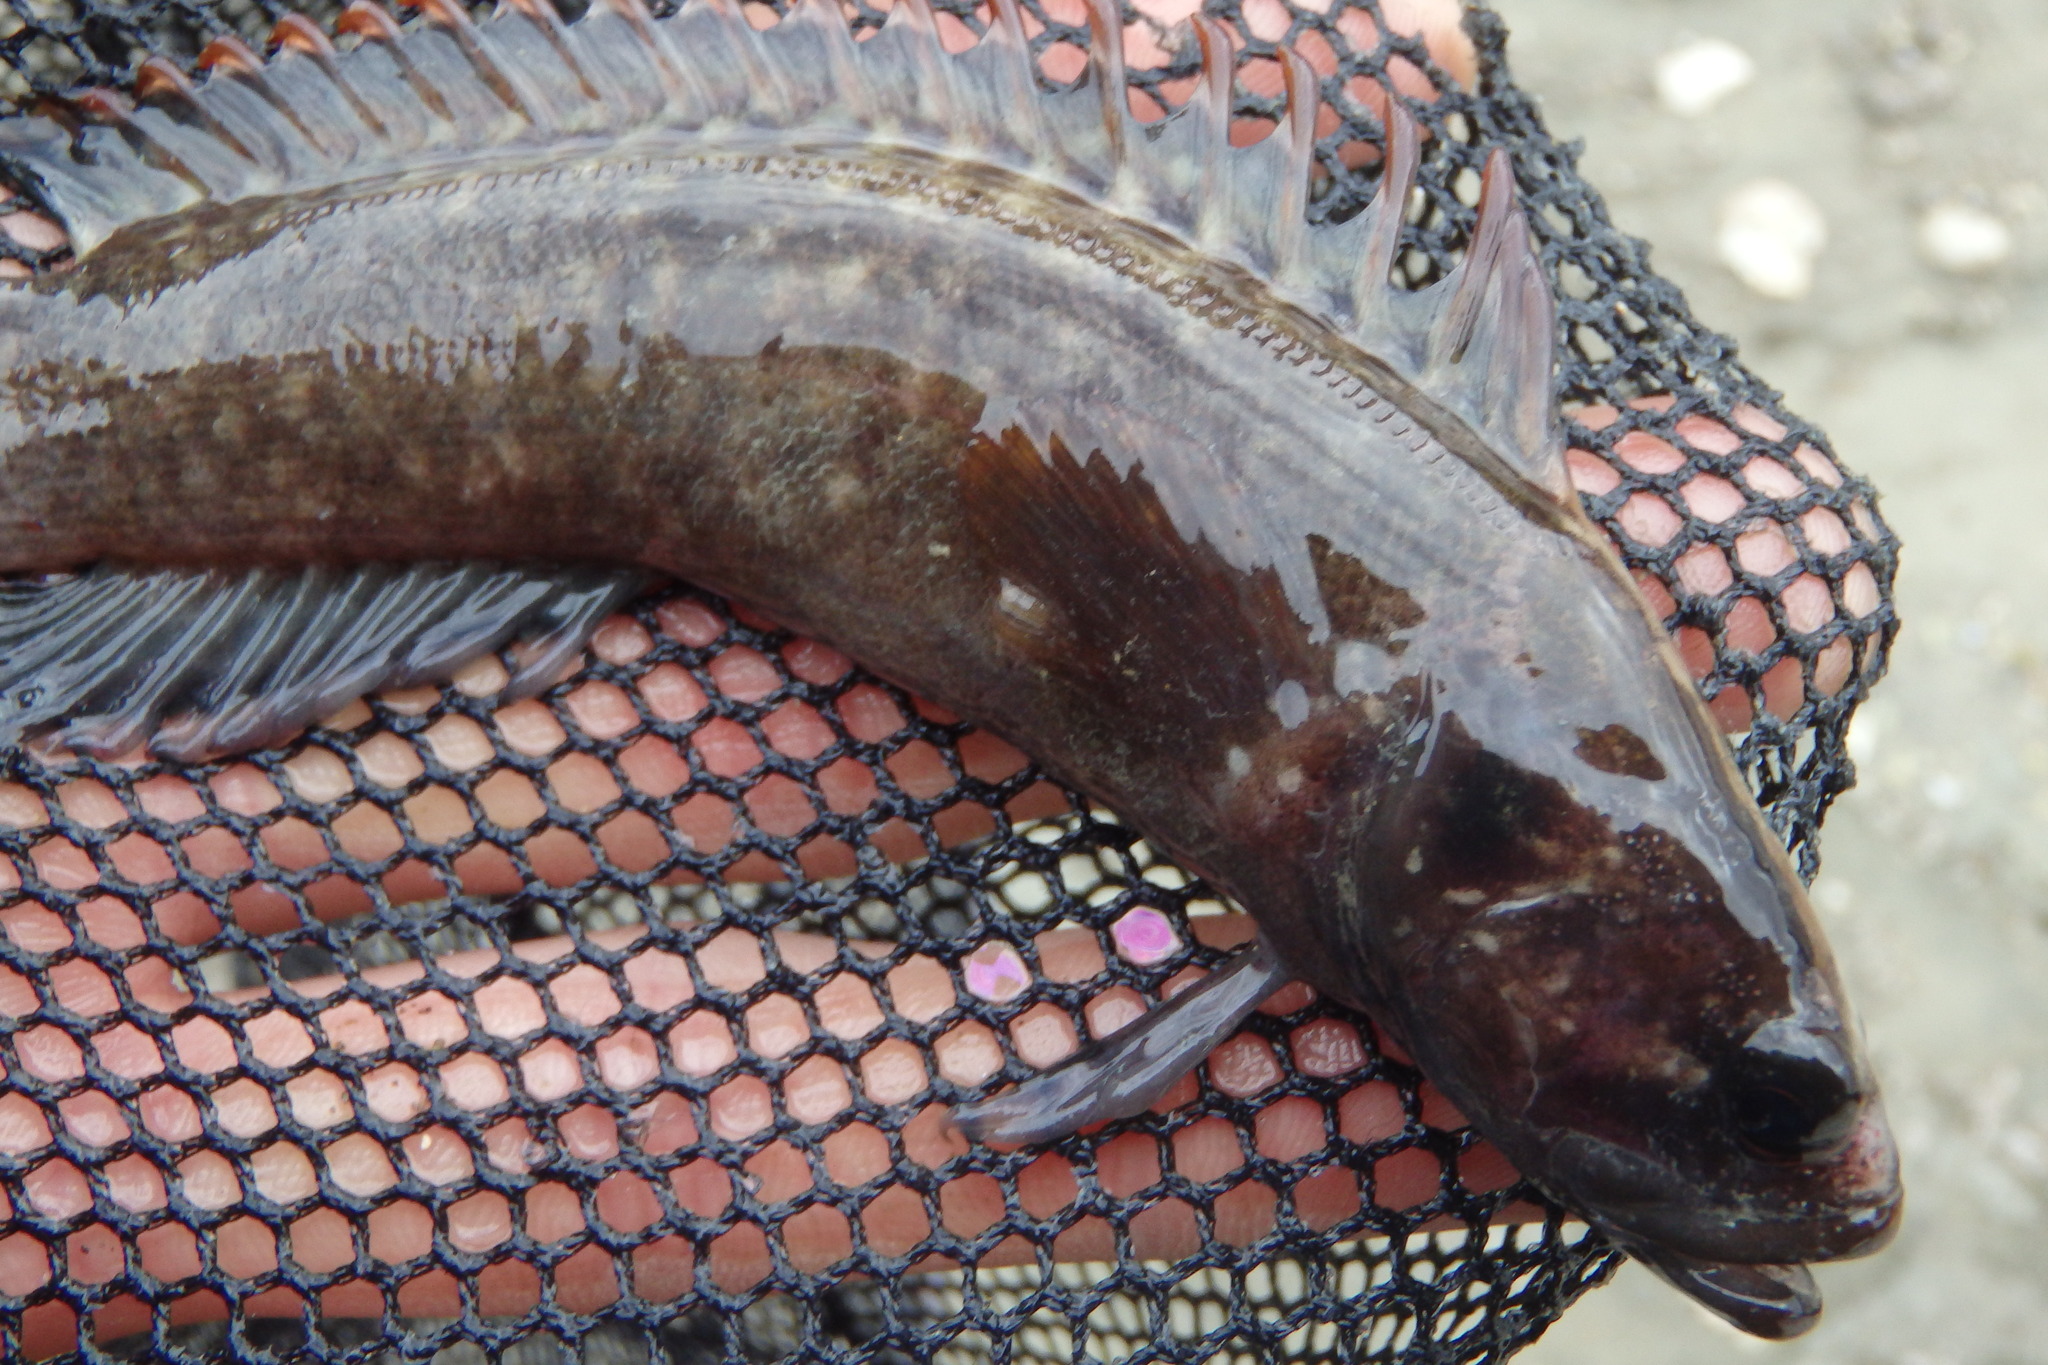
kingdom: Animalia
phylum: Chordata
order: Perciformes
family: Plesiopidae
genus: Acanthoclinus
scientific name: Acanthoclinus fuscus
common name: Olive rockfish
